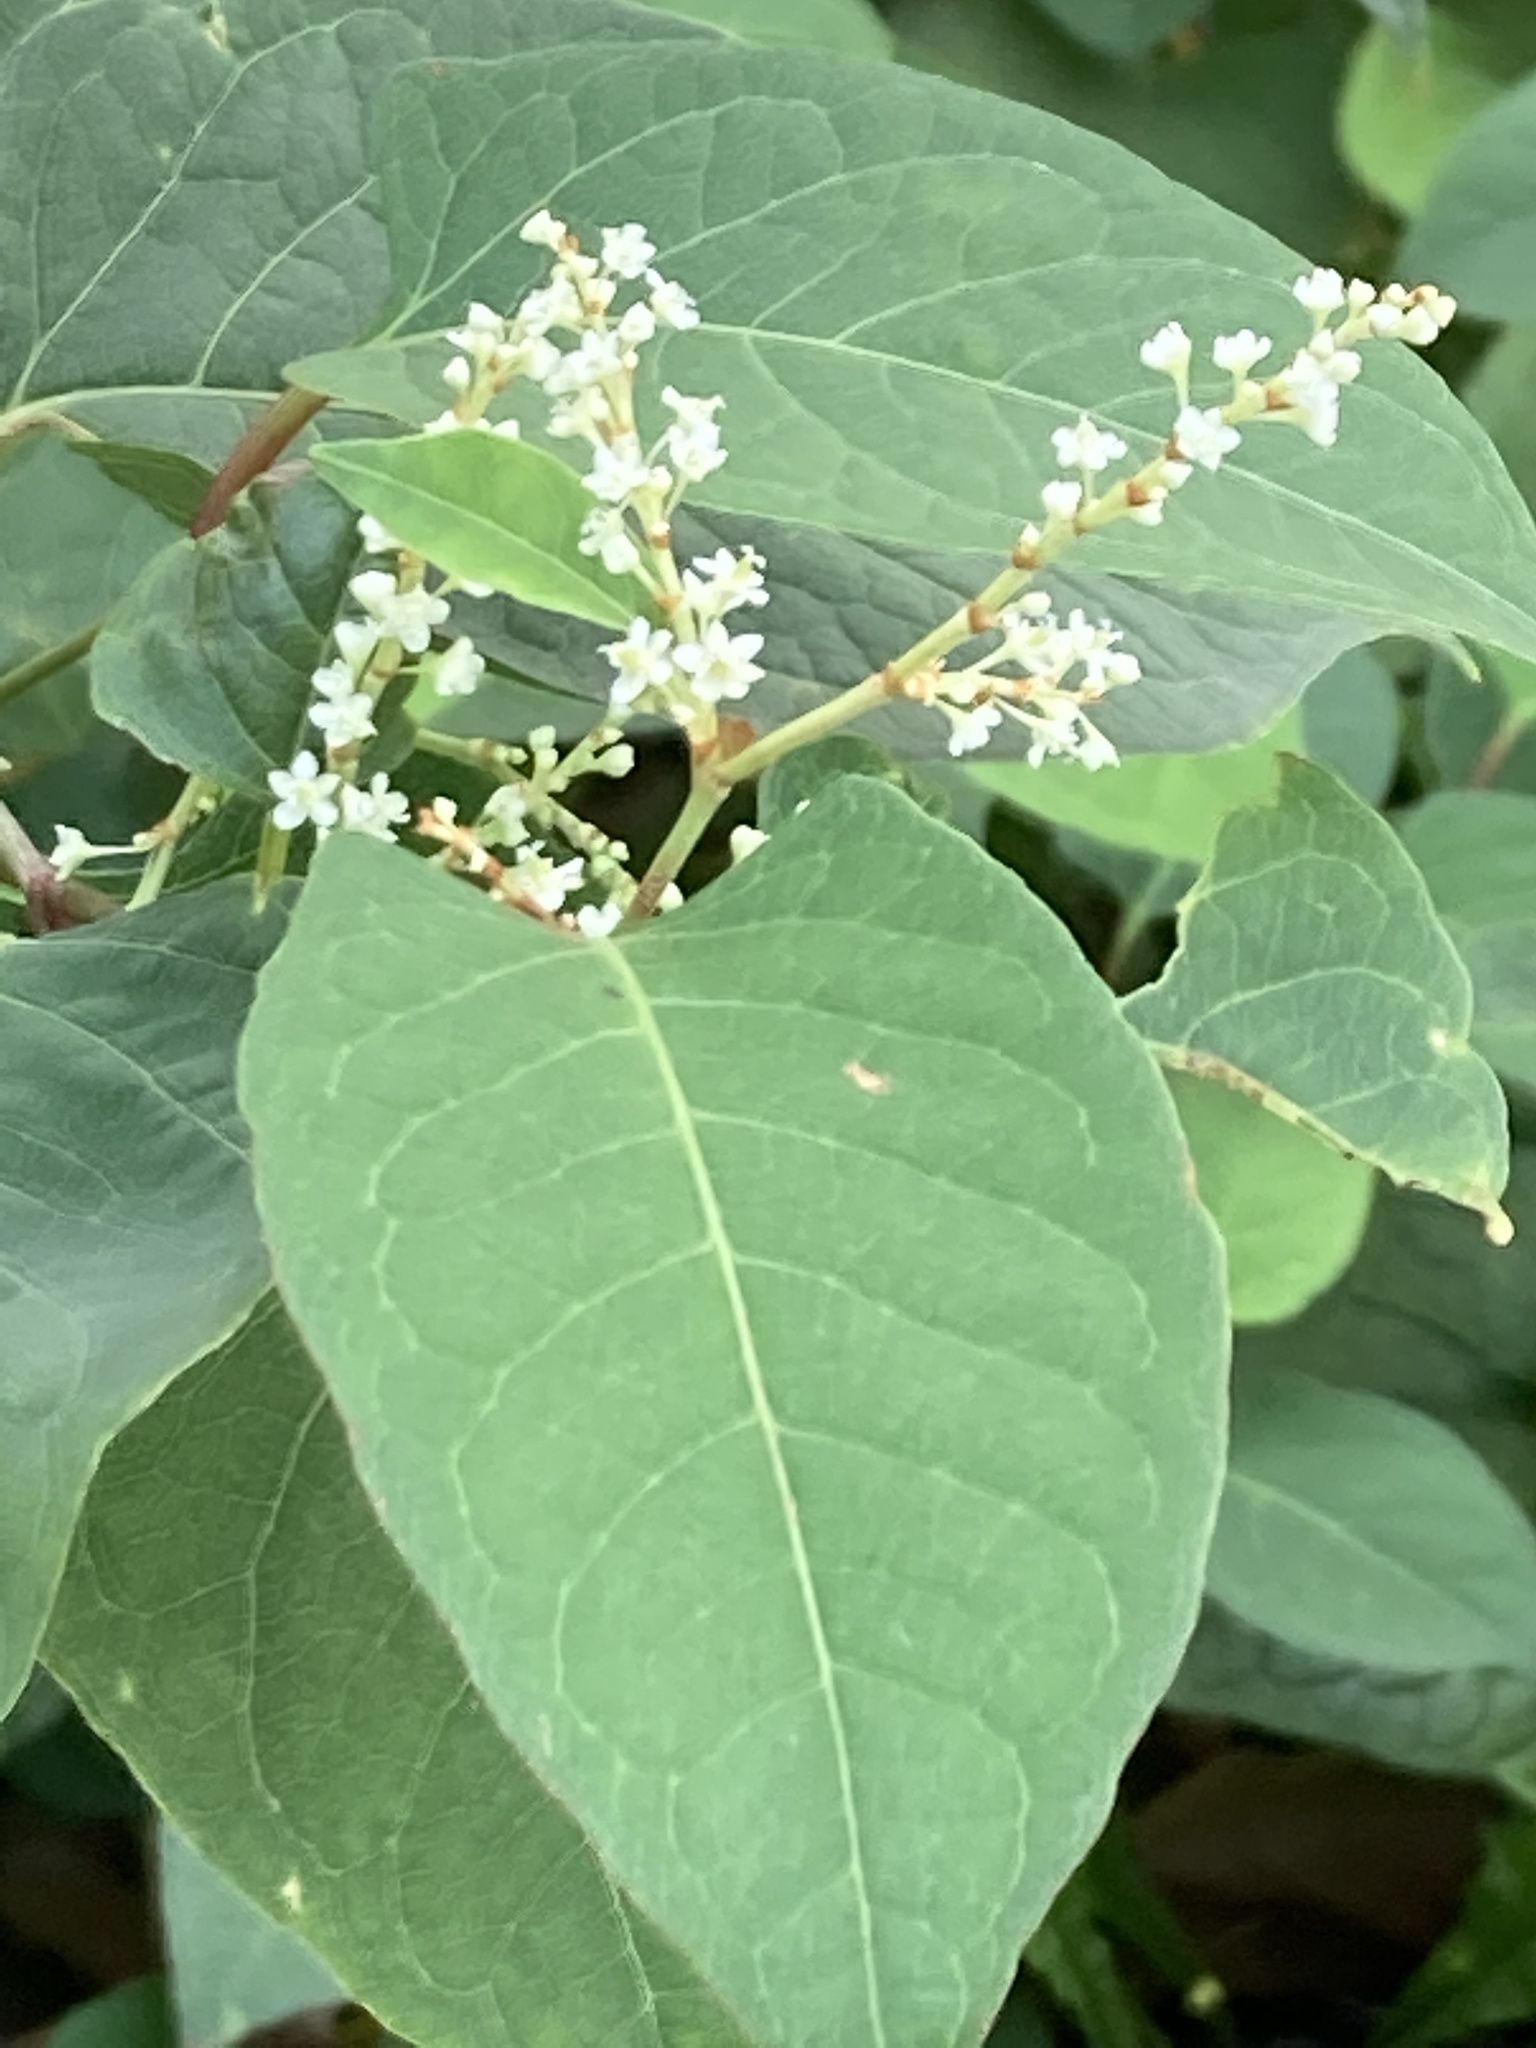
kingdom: Plantae
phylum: Tracheophyta
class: Magnoliopsida
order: Caryophyllales
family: Polygonaceae
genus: Reynoutria
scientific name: Reynoutria japonica
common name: Japanese knotweed
